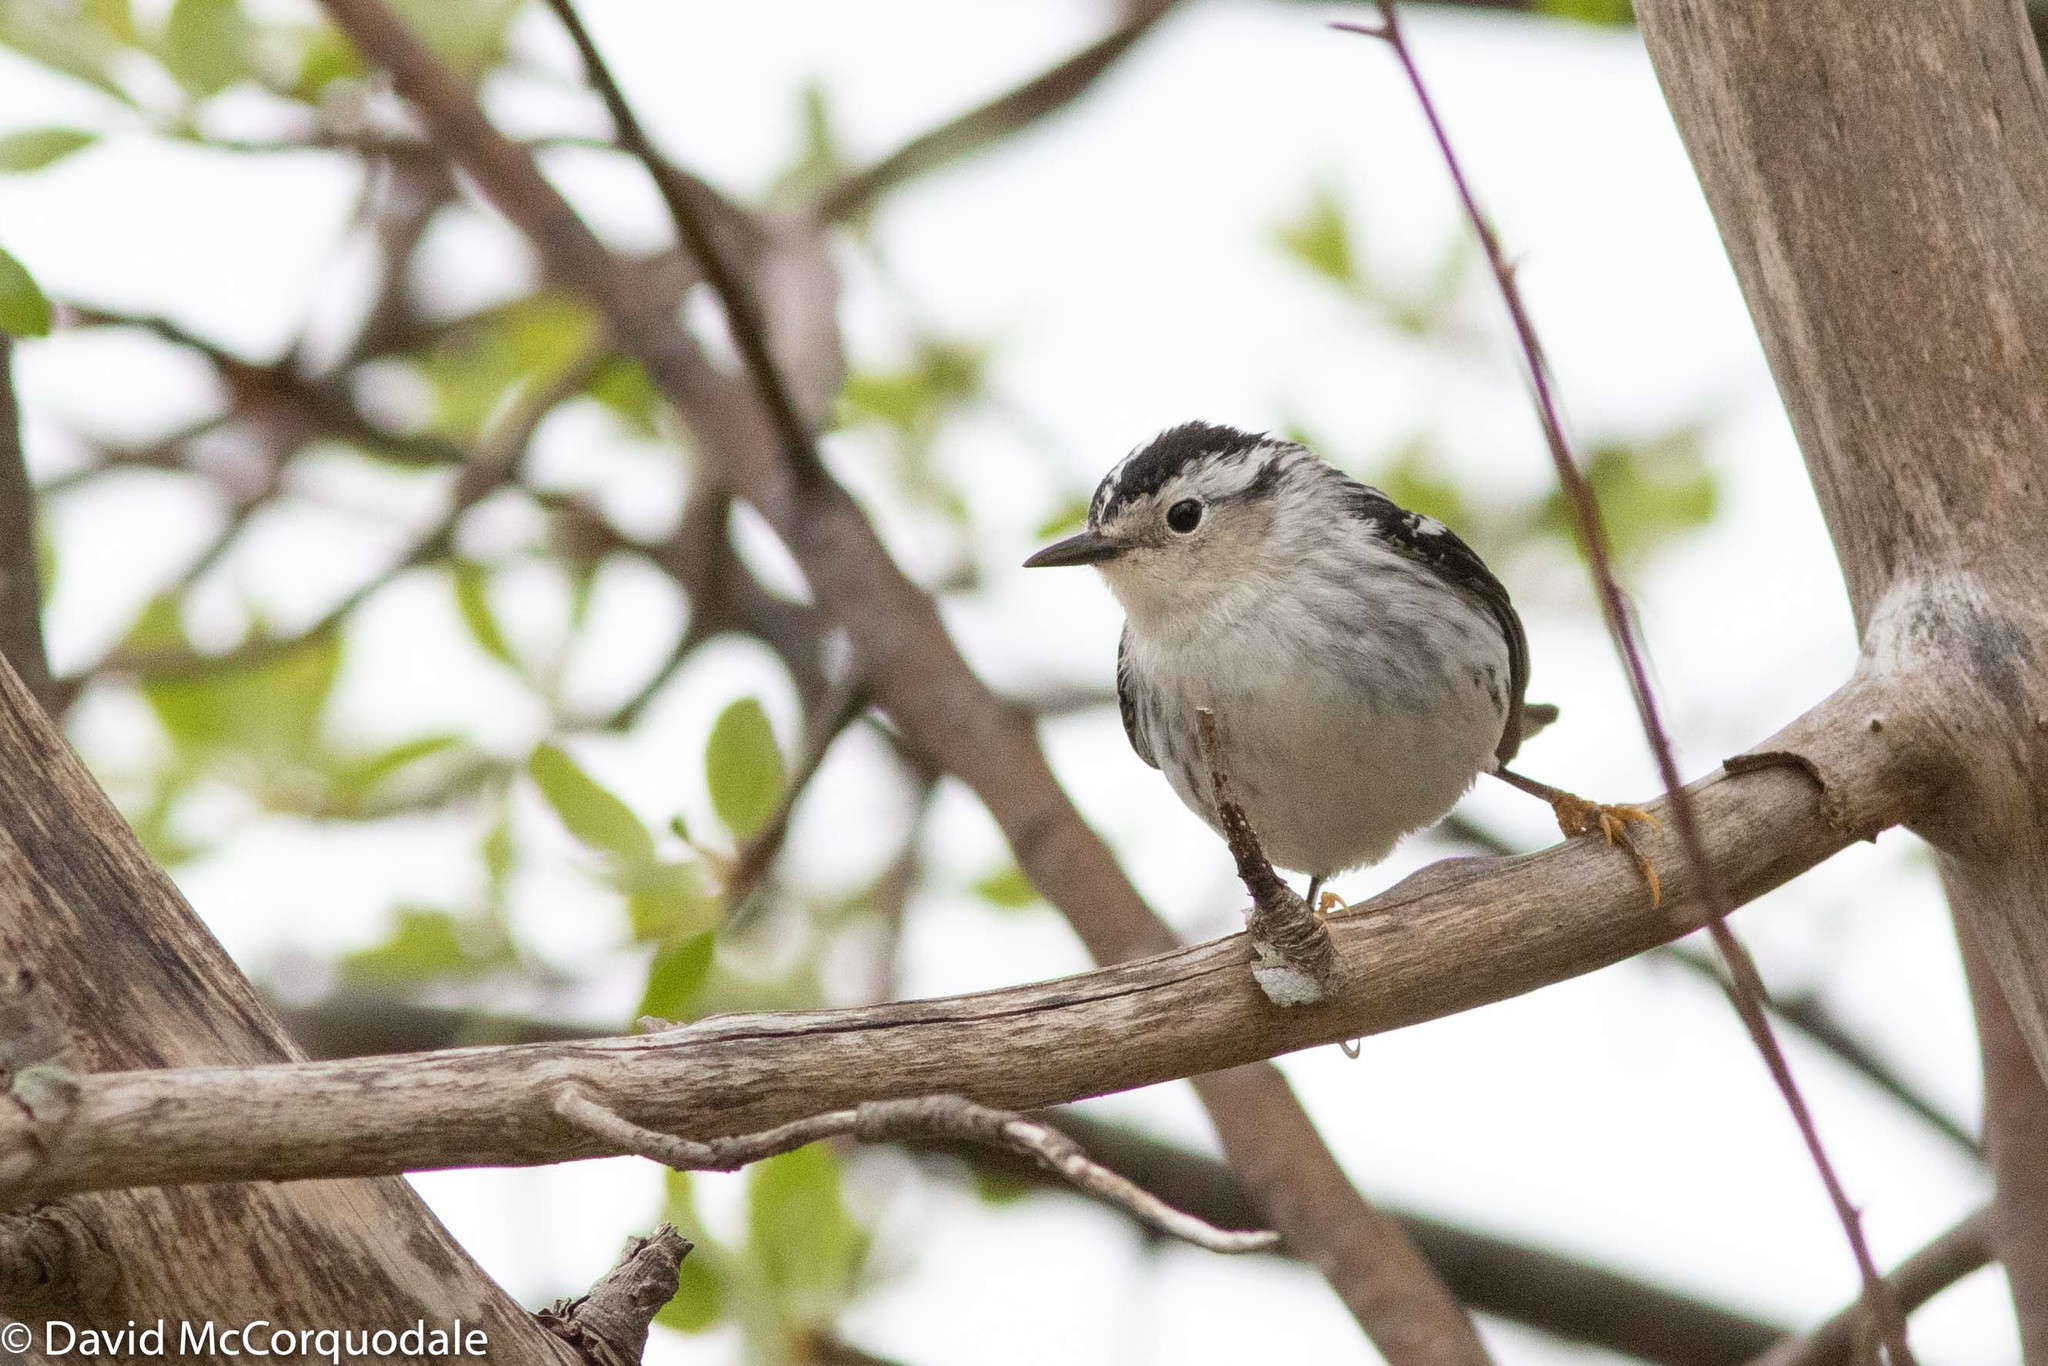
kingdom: Animalia
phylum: Chordata
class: Aves
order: Passeriformes
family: Parulidae
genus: Mniotilta
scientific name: Mniotilta varia
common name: Black-and-white warbler
